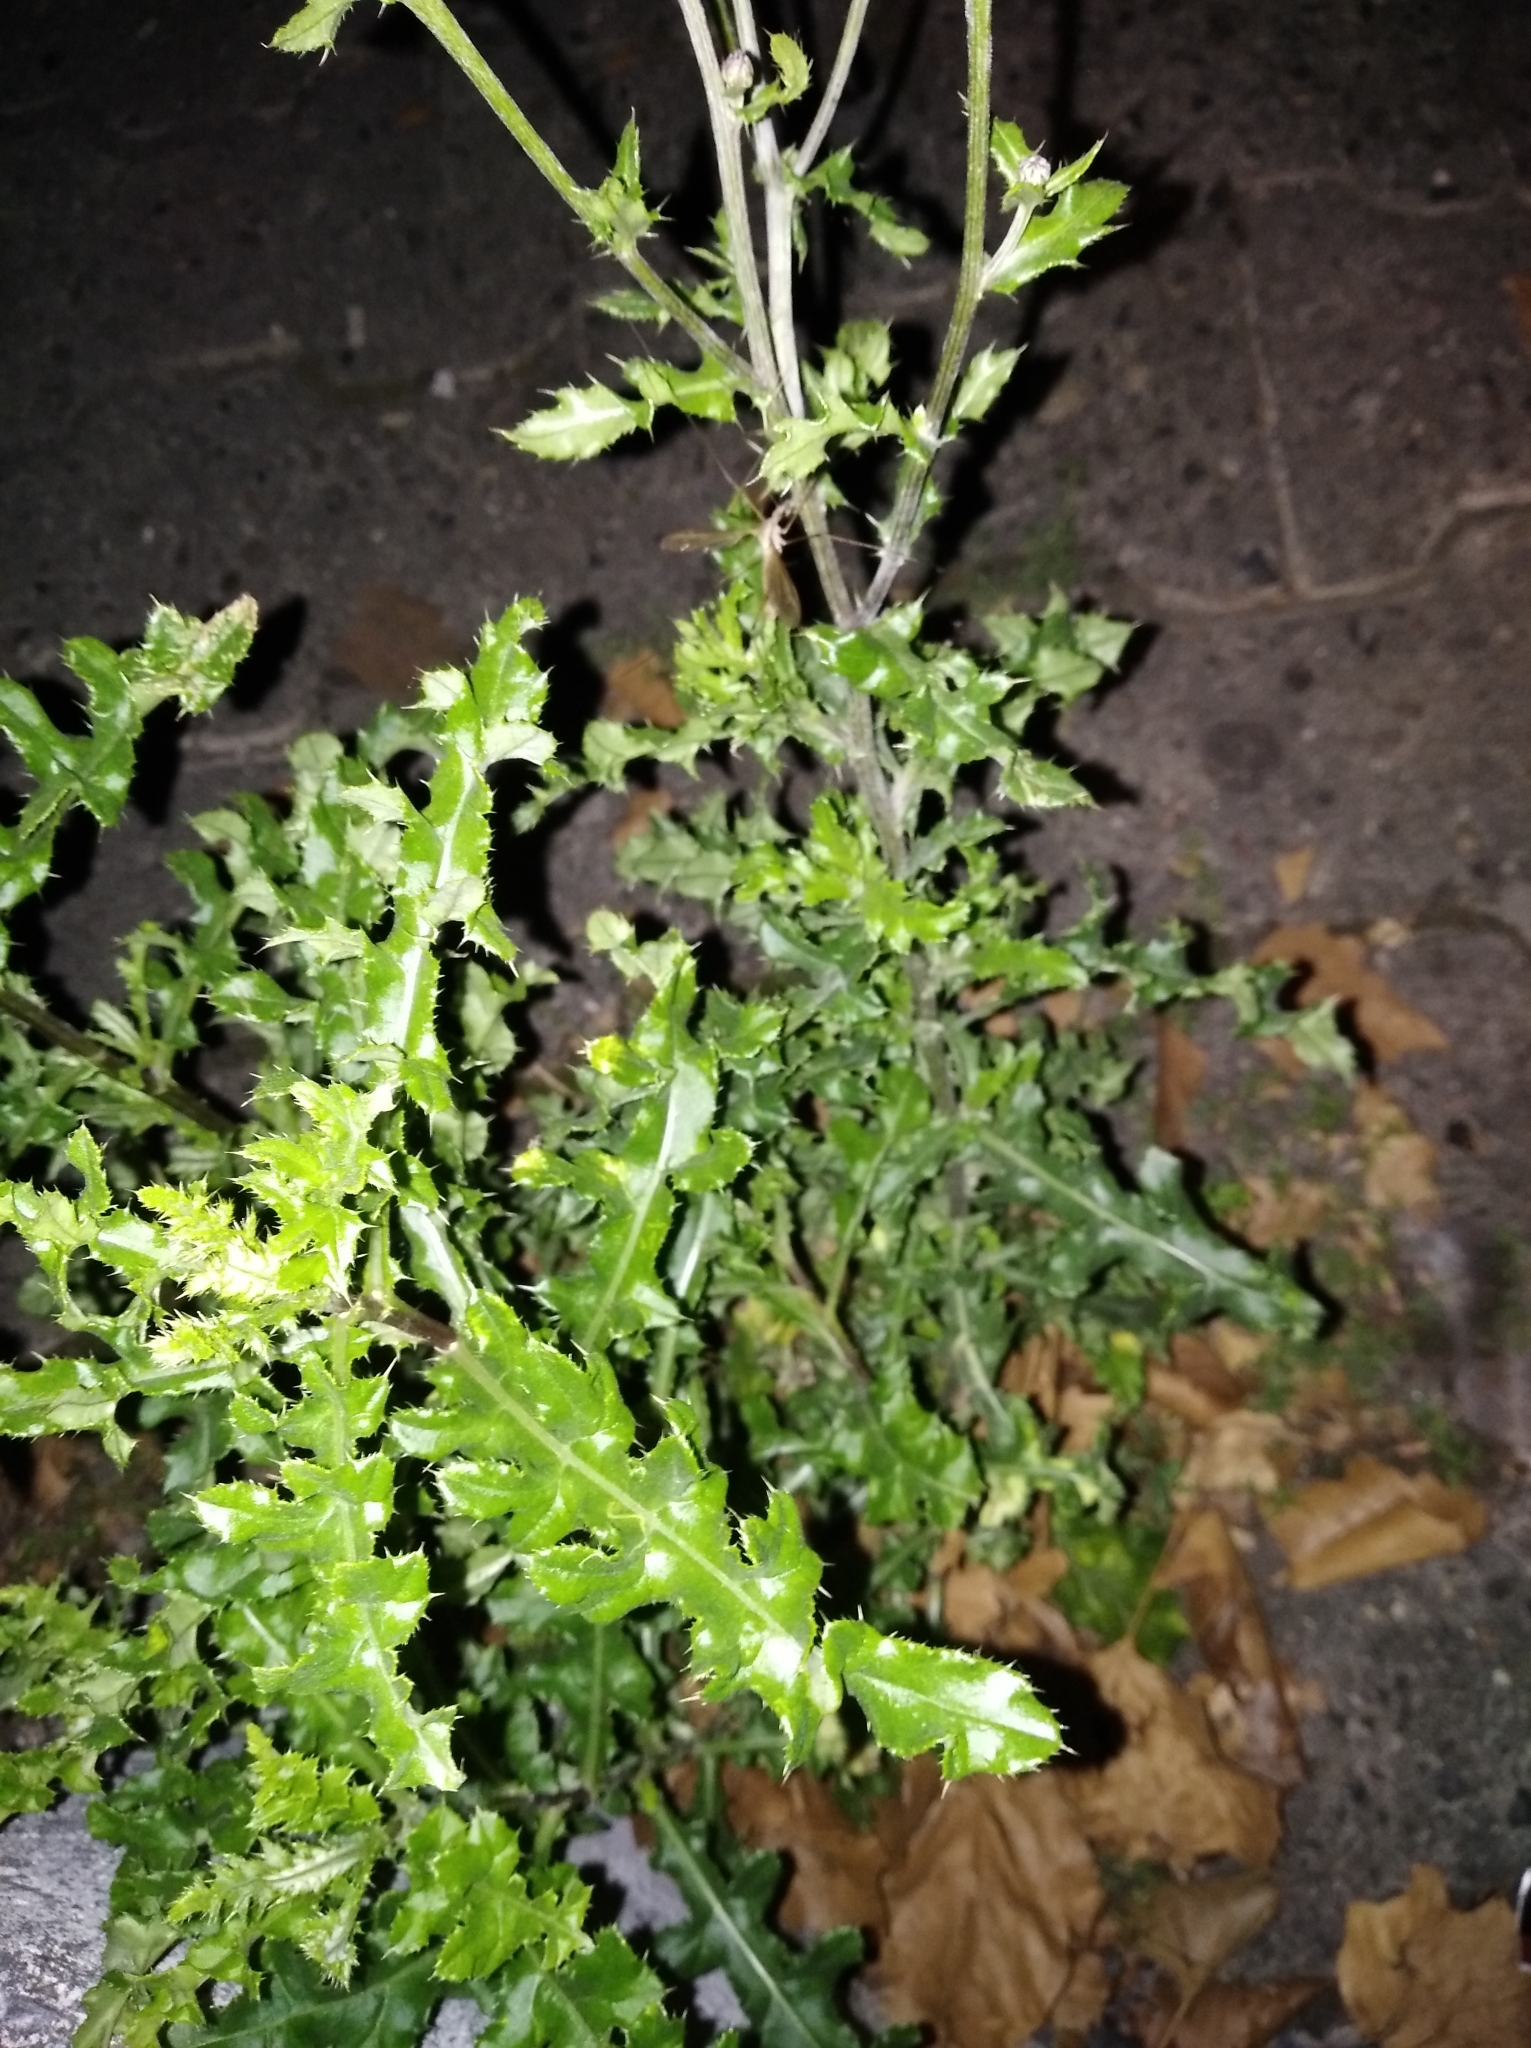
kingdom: Plantae
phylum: Tracheophyta
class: Magnoliopsida
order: Asterales
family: Asteraceae
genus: Cirsium
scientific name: Cirsium arvense
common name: Creeping thistle
